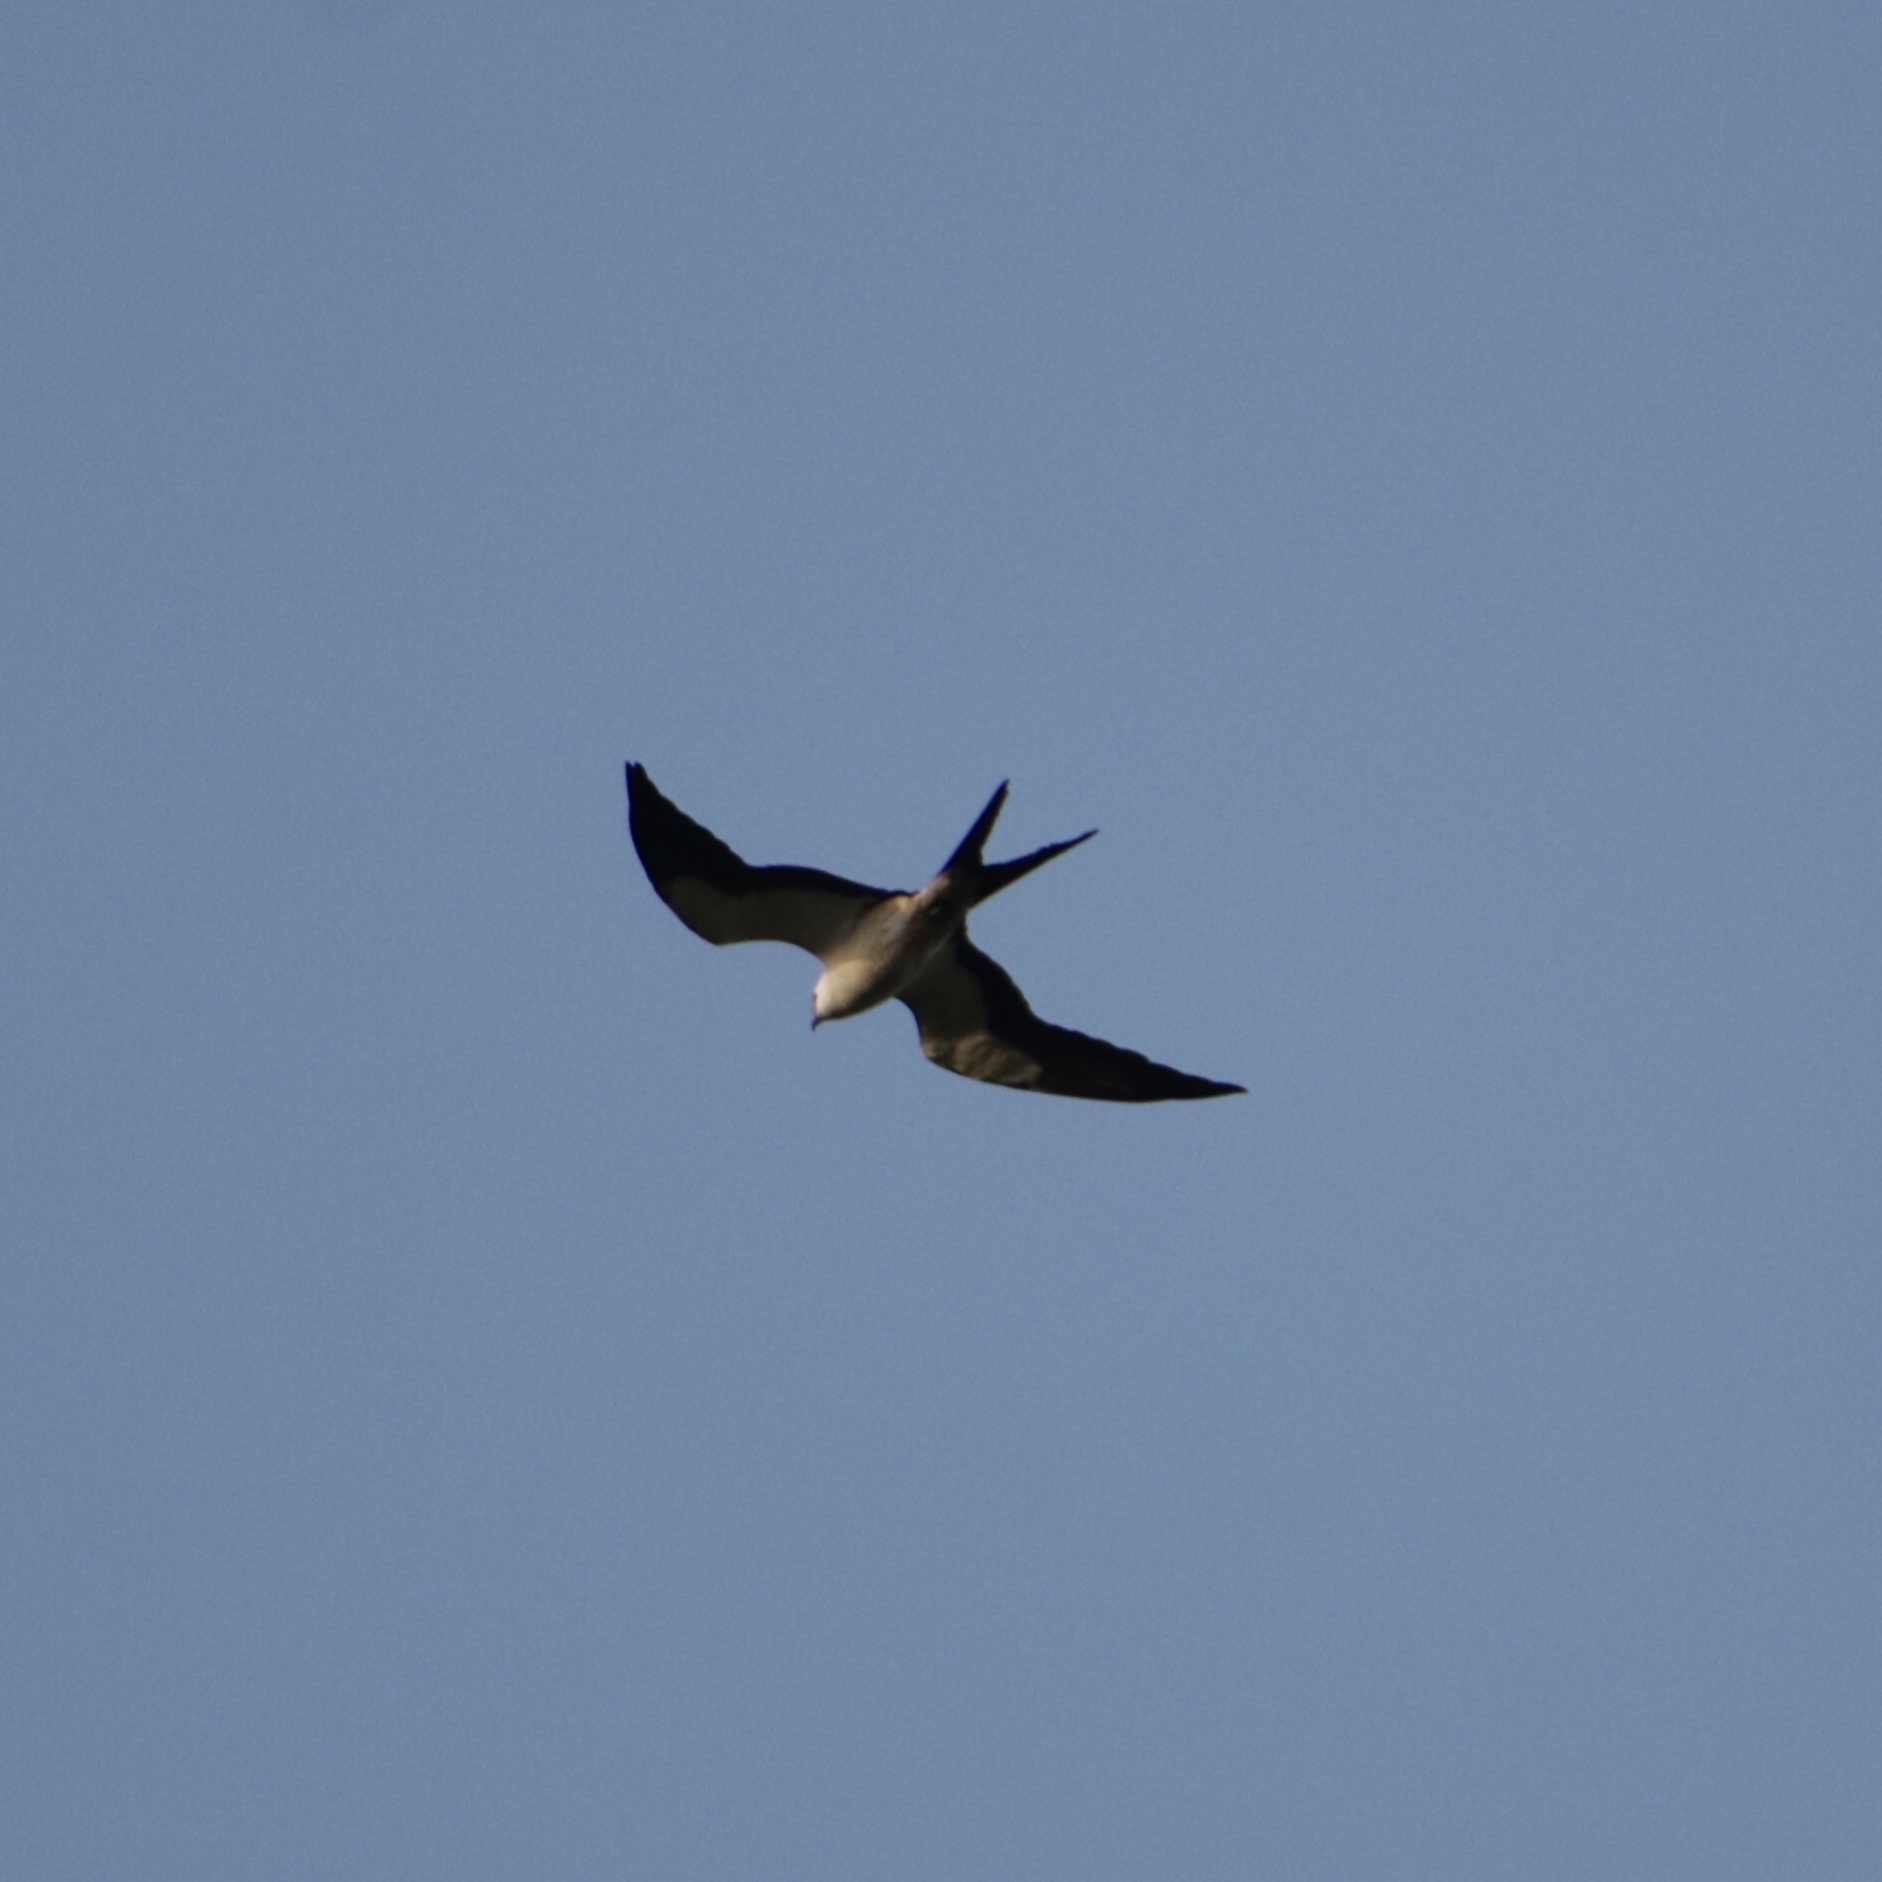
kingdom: Animalia
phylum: Chordata
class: Aves
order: Accipitriformes
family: Accipitridae
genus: Elanoides
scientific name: Elanoides forficatus
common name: Swallow-tailed kite
